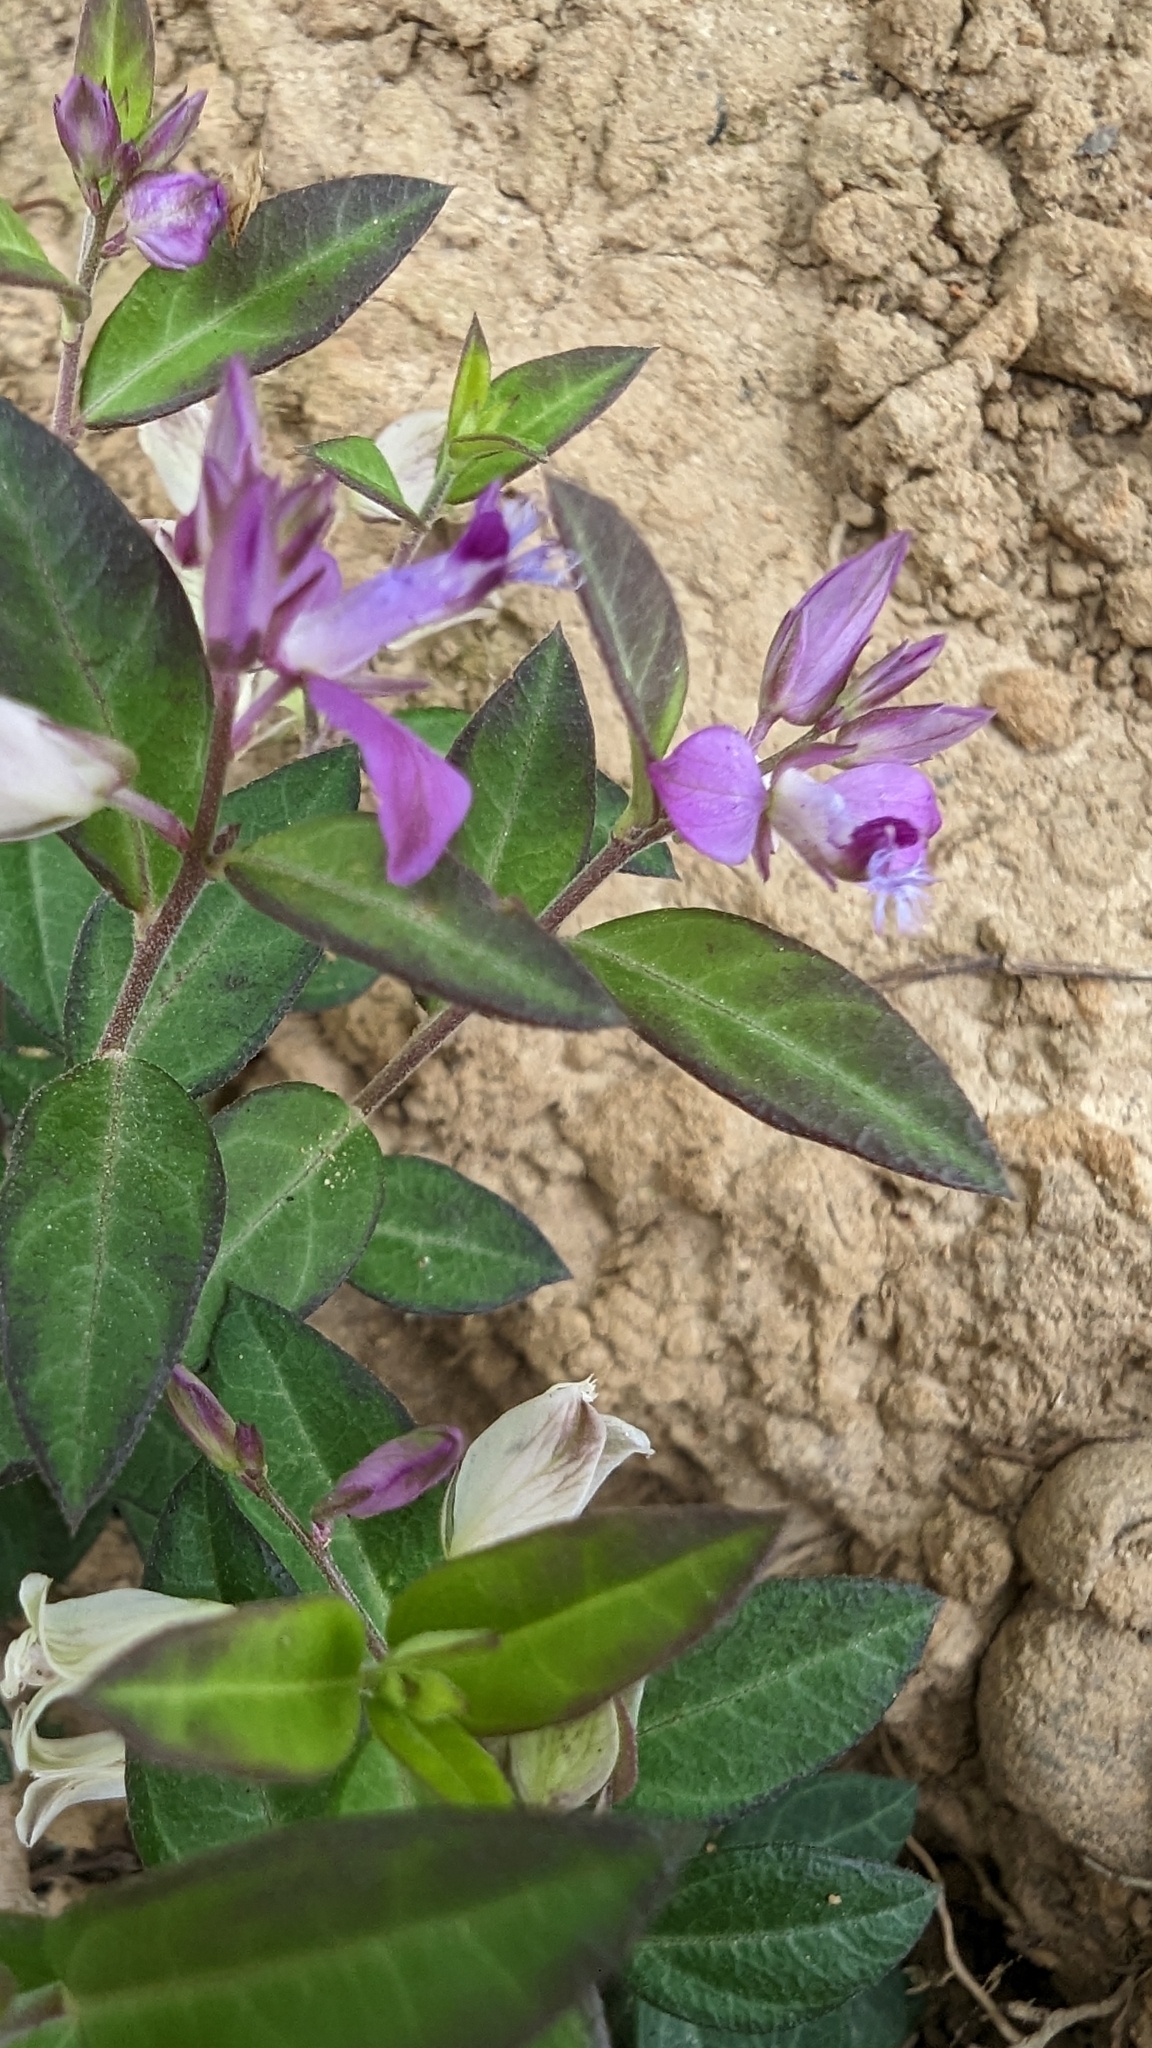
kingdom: Plantae
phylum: Tracheophyta
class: Magnoliopsida
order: Fabales
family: Polygalaceae
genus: Polygala
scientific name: Polygala japonica
